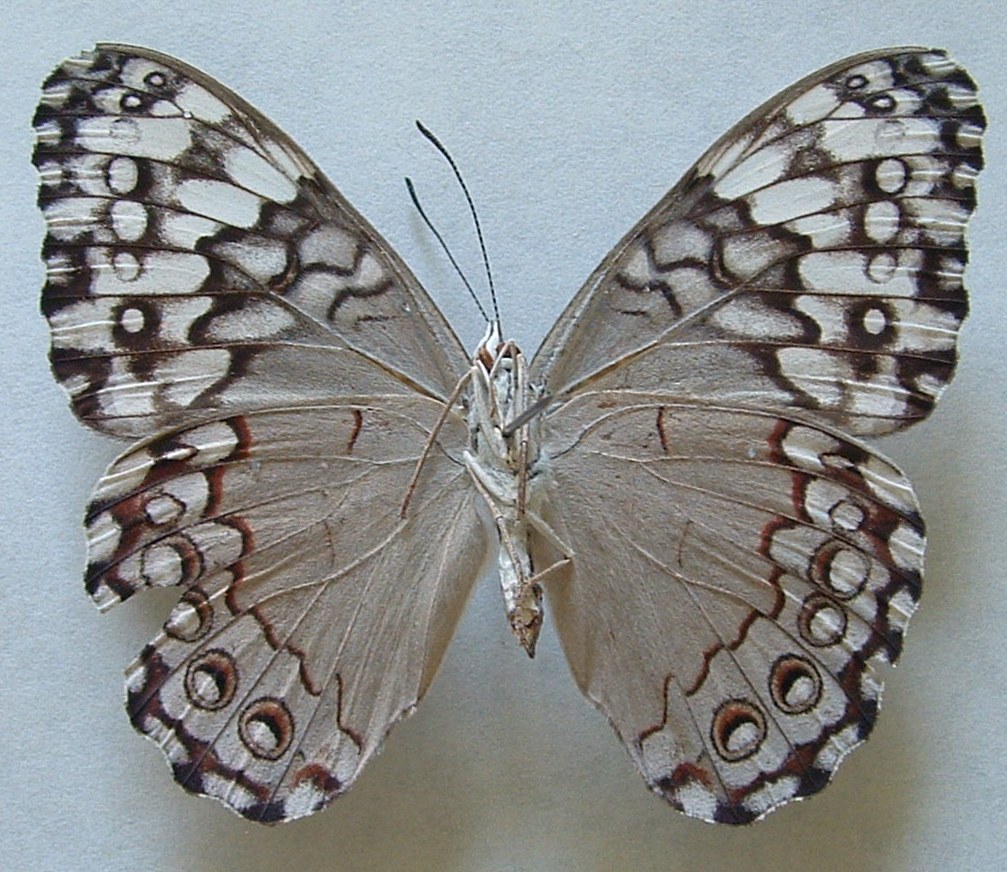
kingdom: Animalia
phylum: Arthropoda
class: Insecta
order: Lepidoptera
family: Nymphalidae
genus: Hamadryas
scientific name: Hamadryas glauconome
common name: Glaucous cracker
